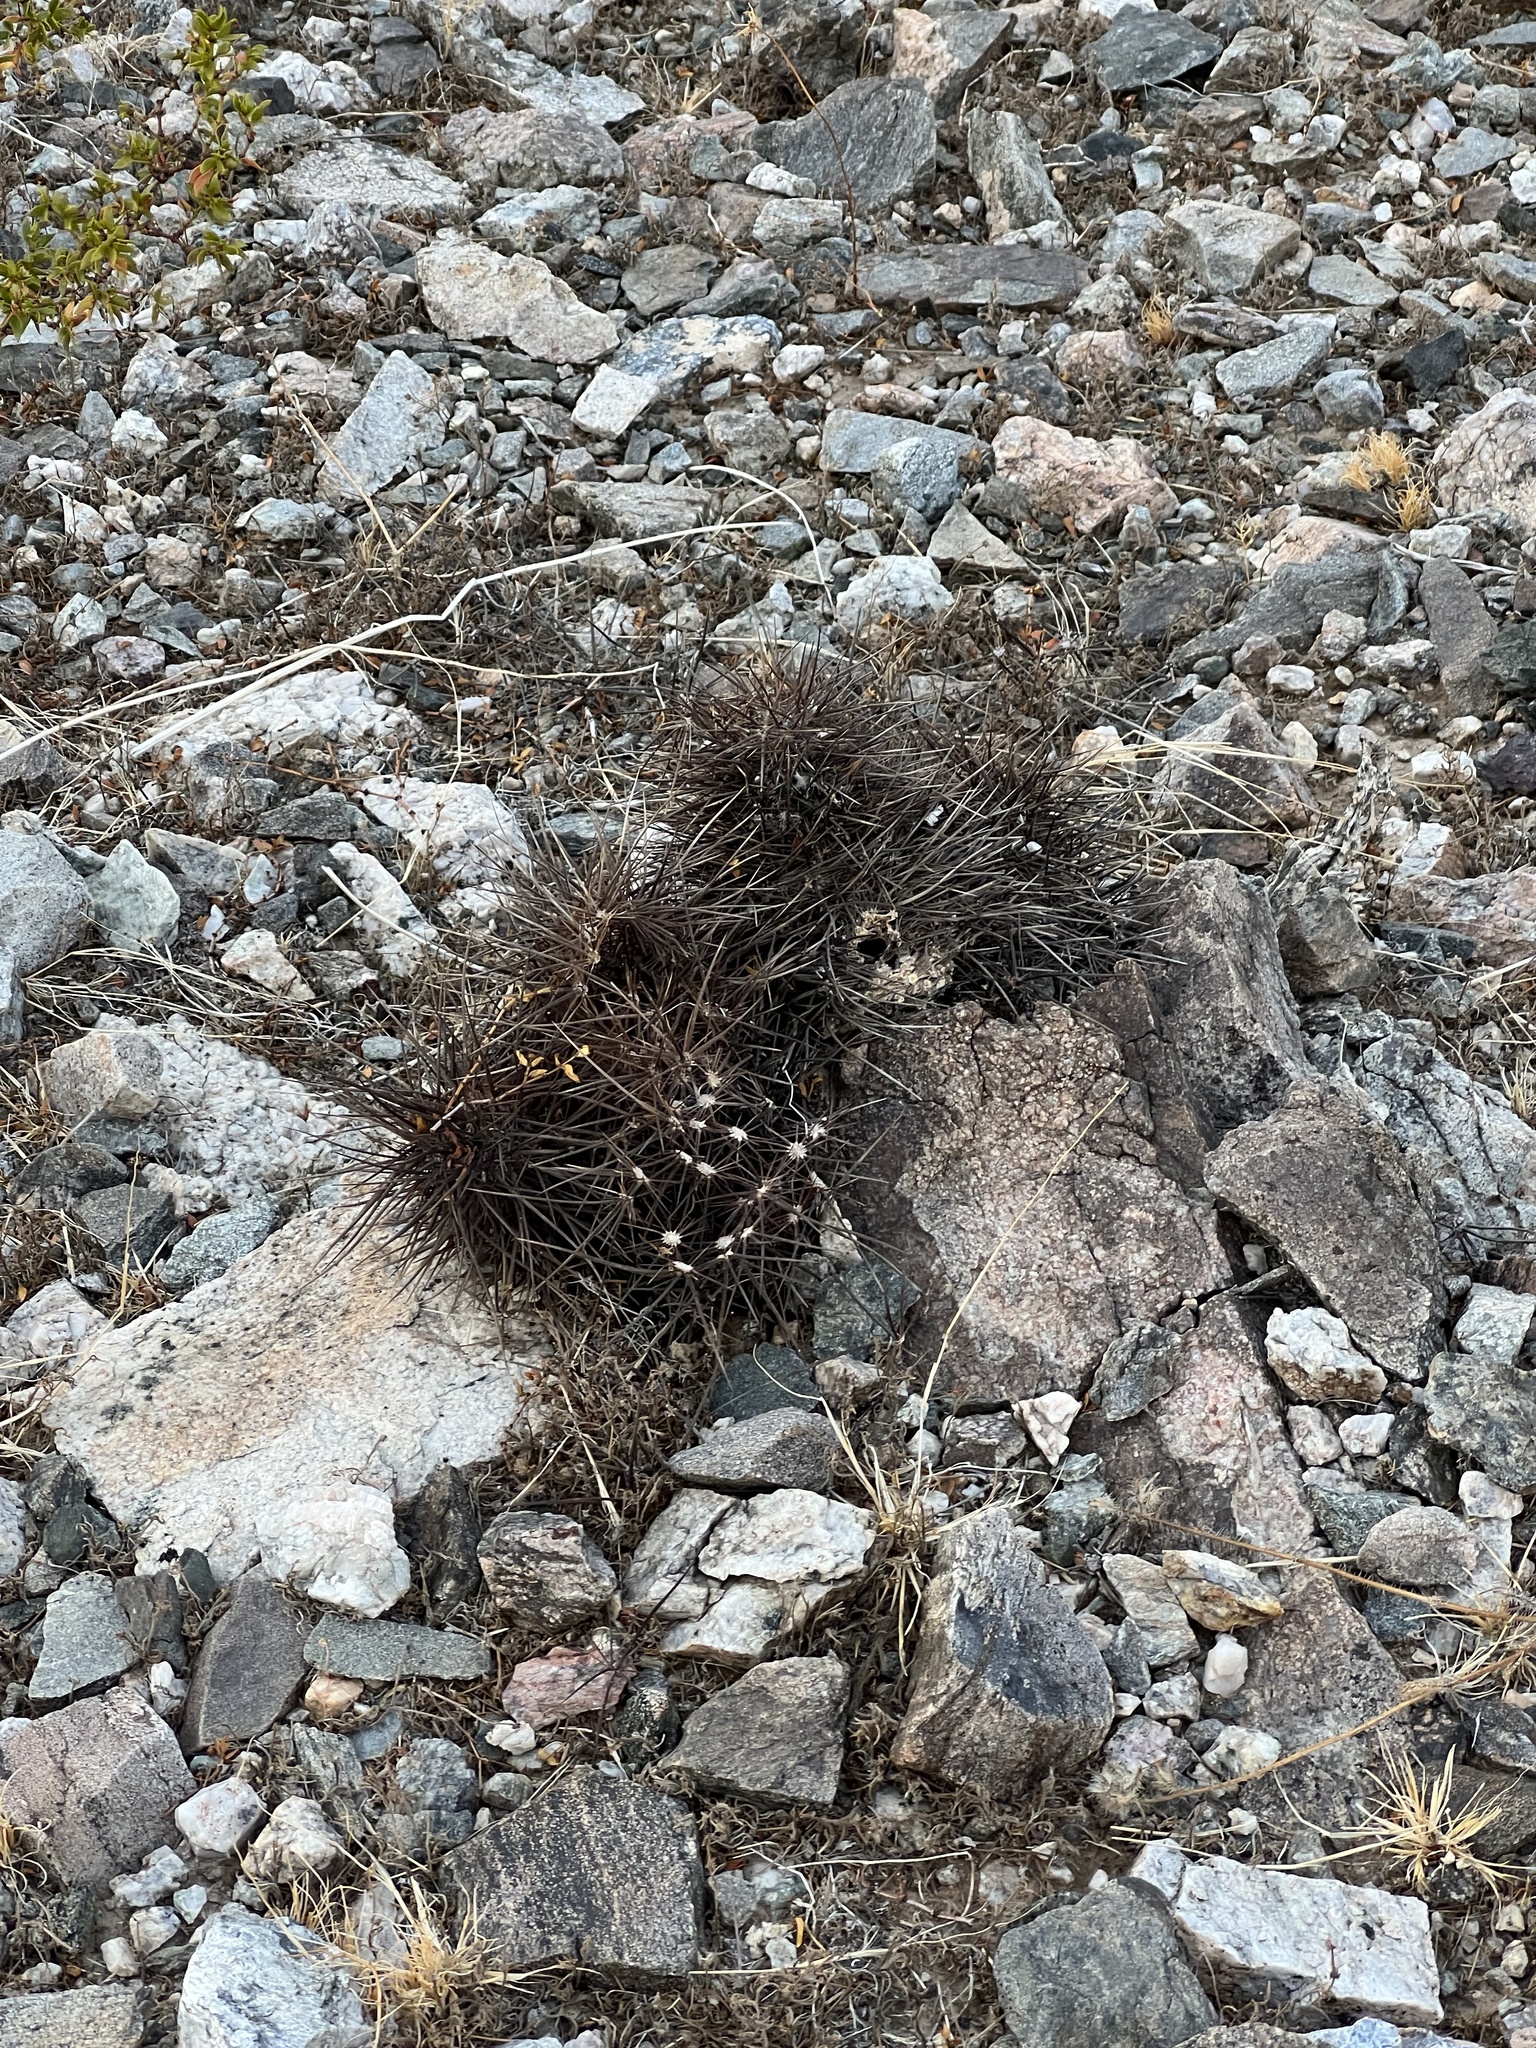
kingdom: Plantae
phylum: Tracheophyta
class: Magnoliopsida
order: Caryophyllales
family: Cactaceae
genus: Echinocereus
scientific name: Echinocereus engelmannii
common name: Engelmann's hedgehog cactus
